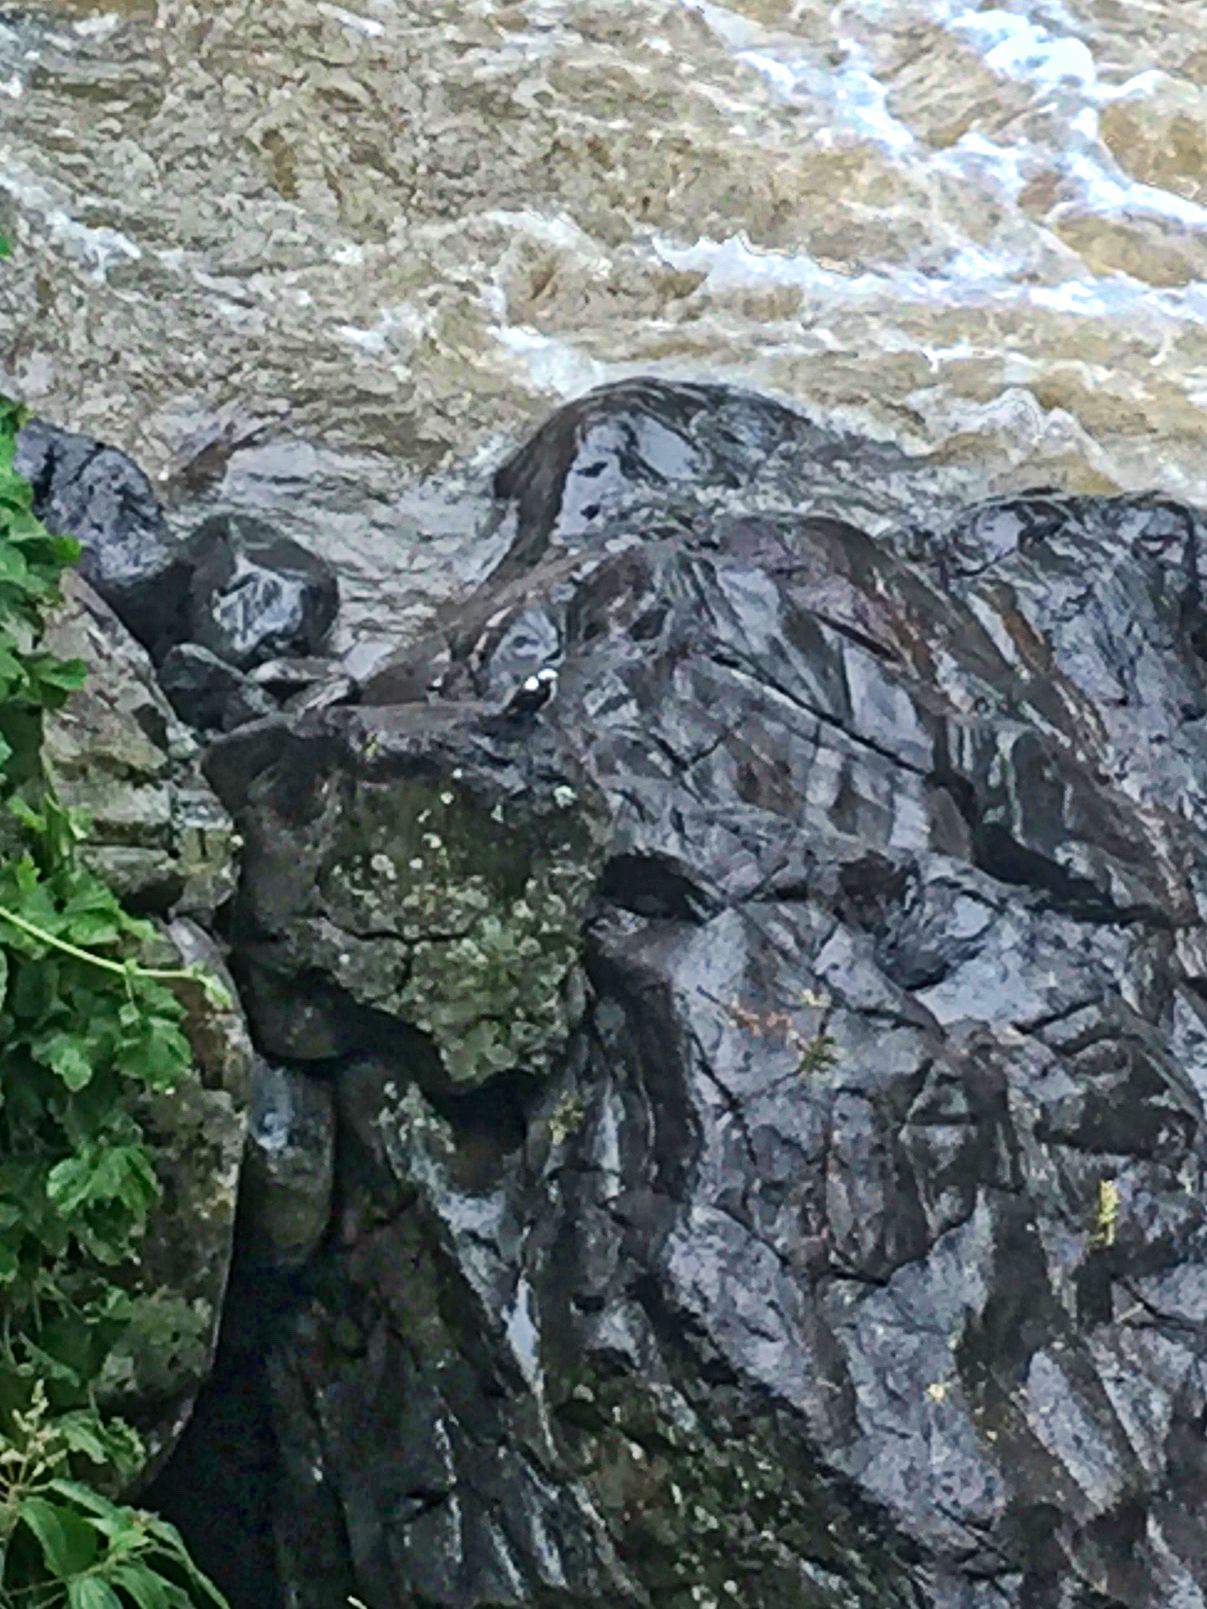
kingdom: Animalia
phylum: Chordata
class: Aves
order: Passeriformes
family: Cinclidae
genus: Cinclus
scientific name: Cinclus leucocephalus
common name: White-capped dipper
